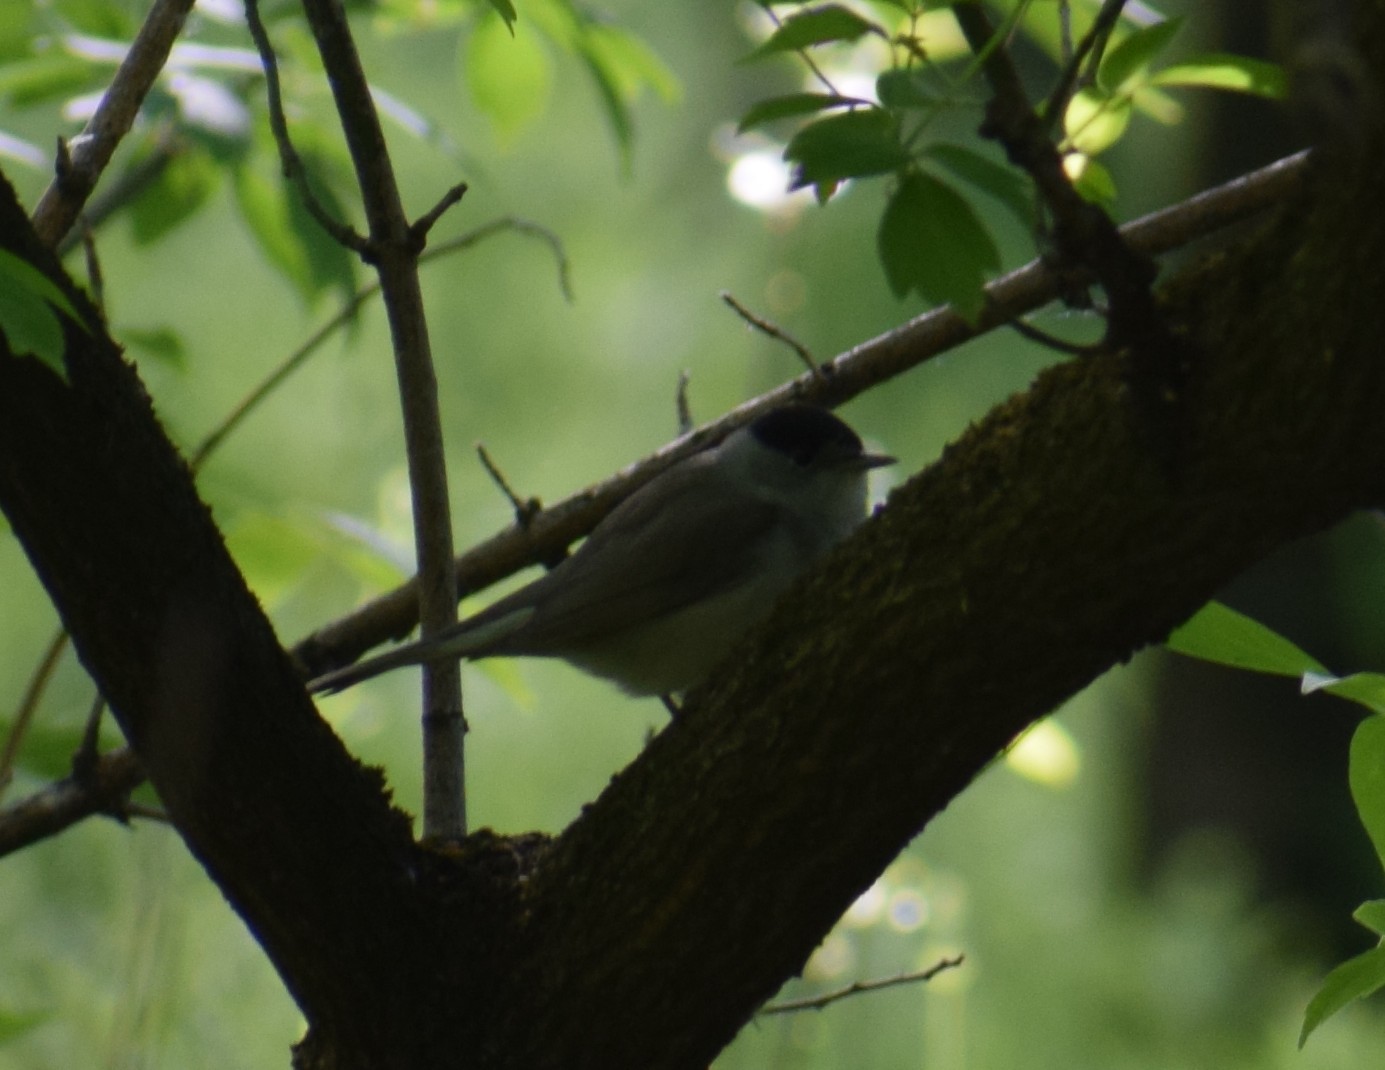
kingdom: Animalia
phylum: Chordata
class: Aves
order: Passeriformes
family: Sylviidae
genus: Sylvia
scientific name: Sylvia atricapilla
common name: Eurasian blackcap
